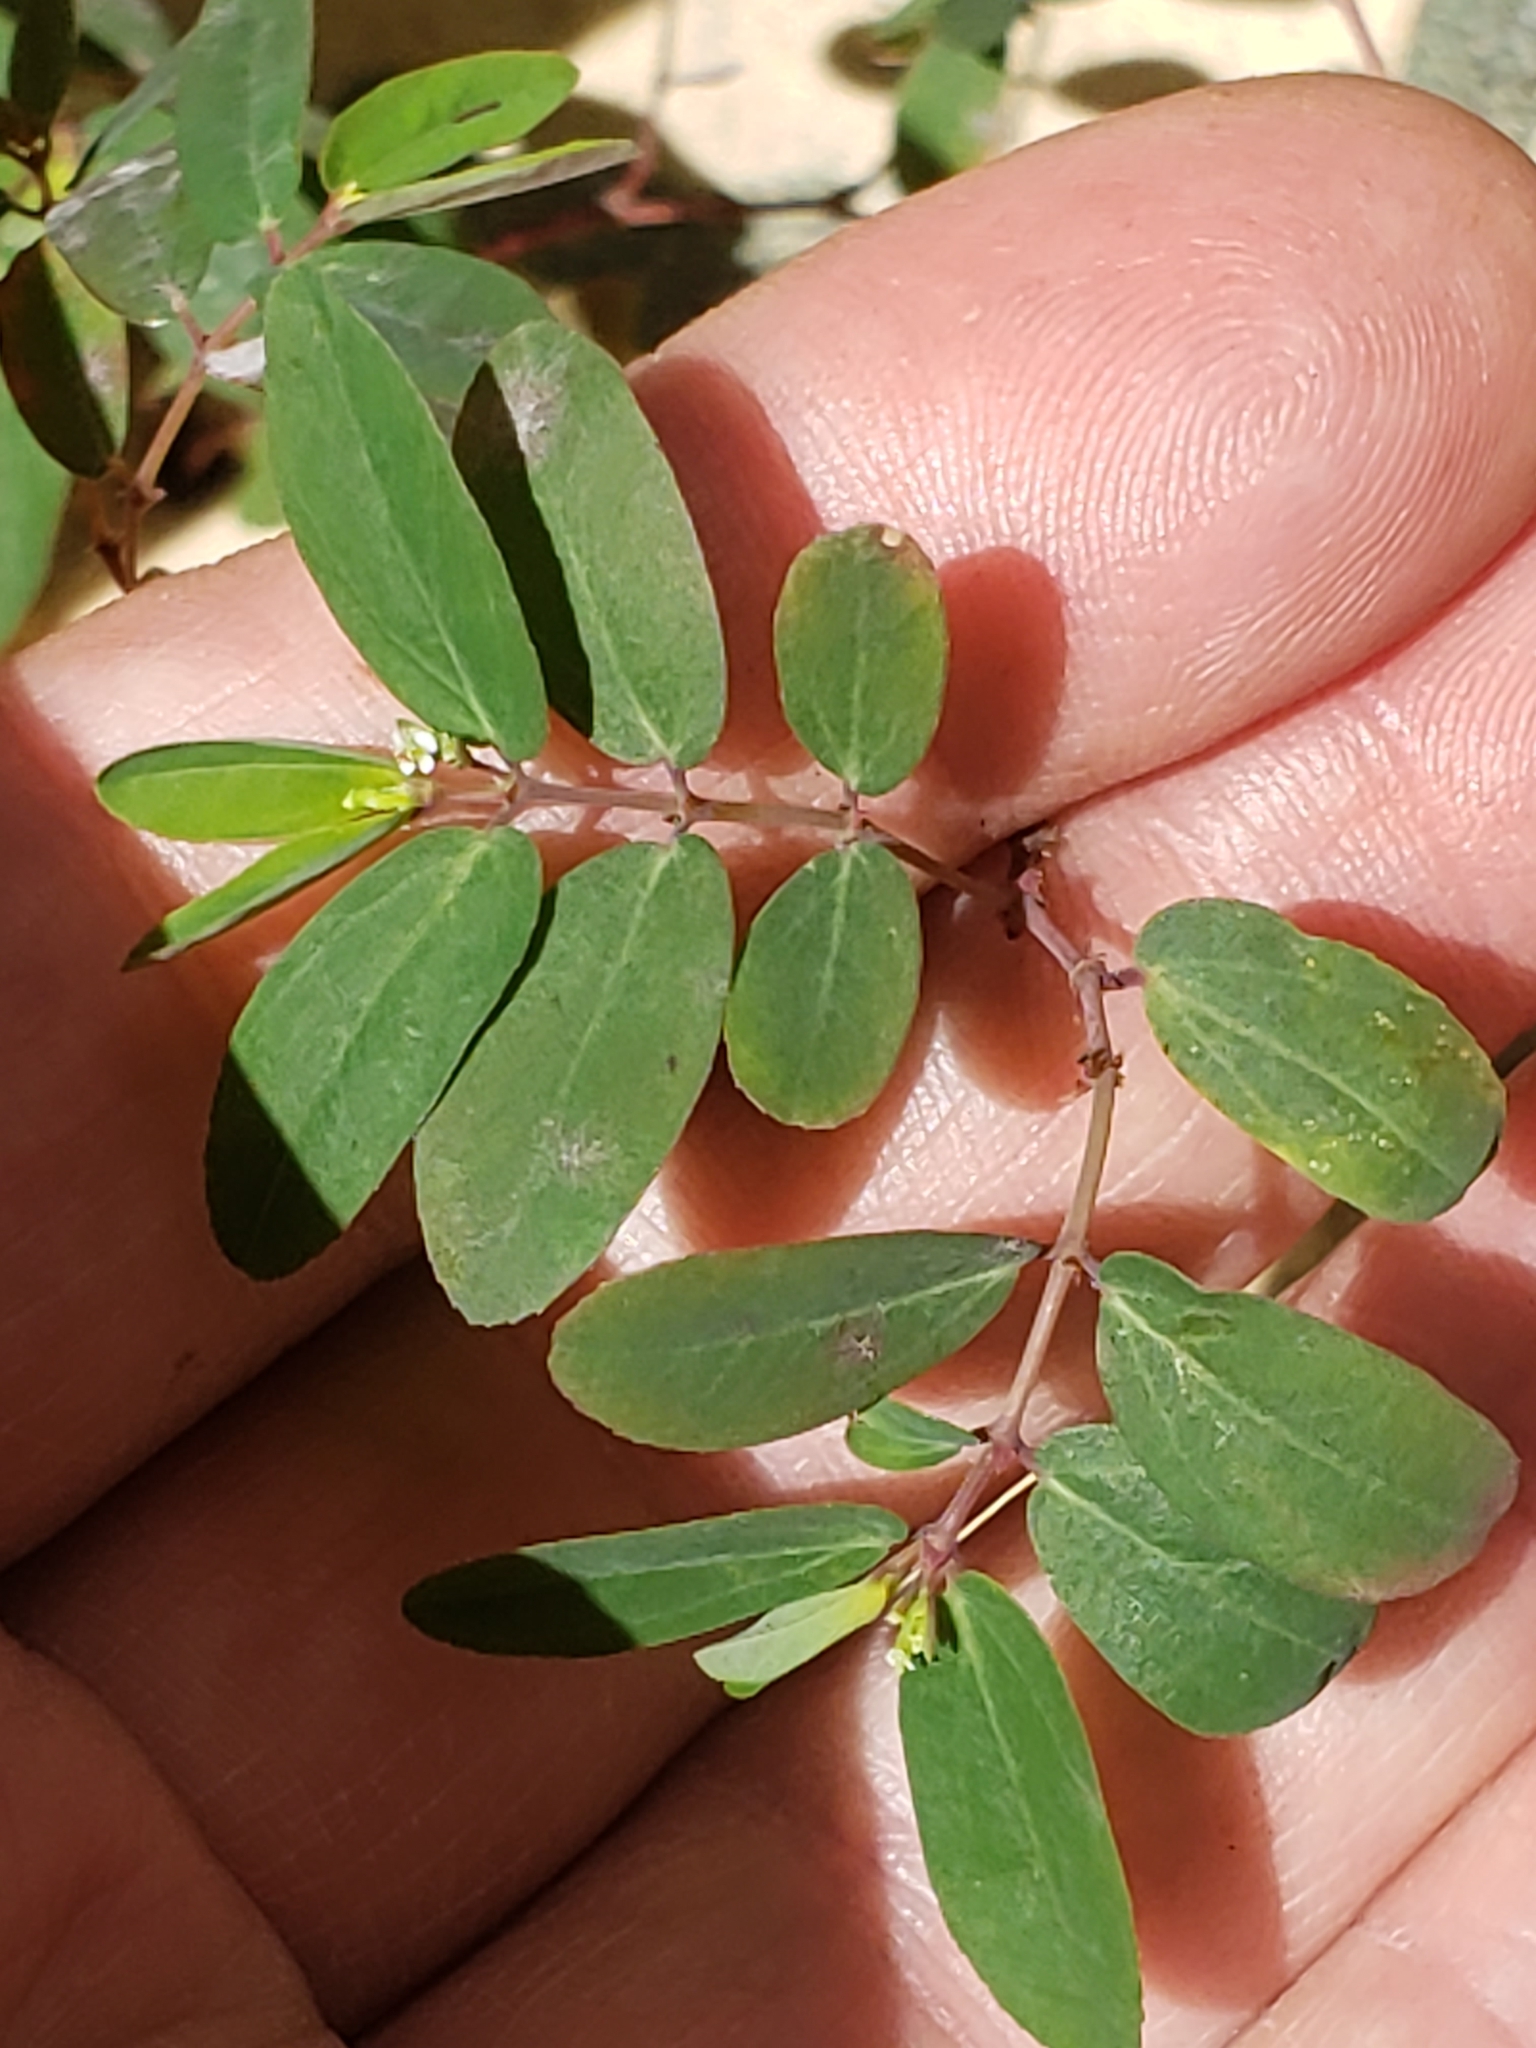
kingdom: Plantae
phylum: Tracheophyta
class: Magnoliopsida
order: Malpighiales
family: Euphorbiaceae
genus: Euphorbia
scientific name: Euphorbia hypericifolia
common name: Graceful sandmat
